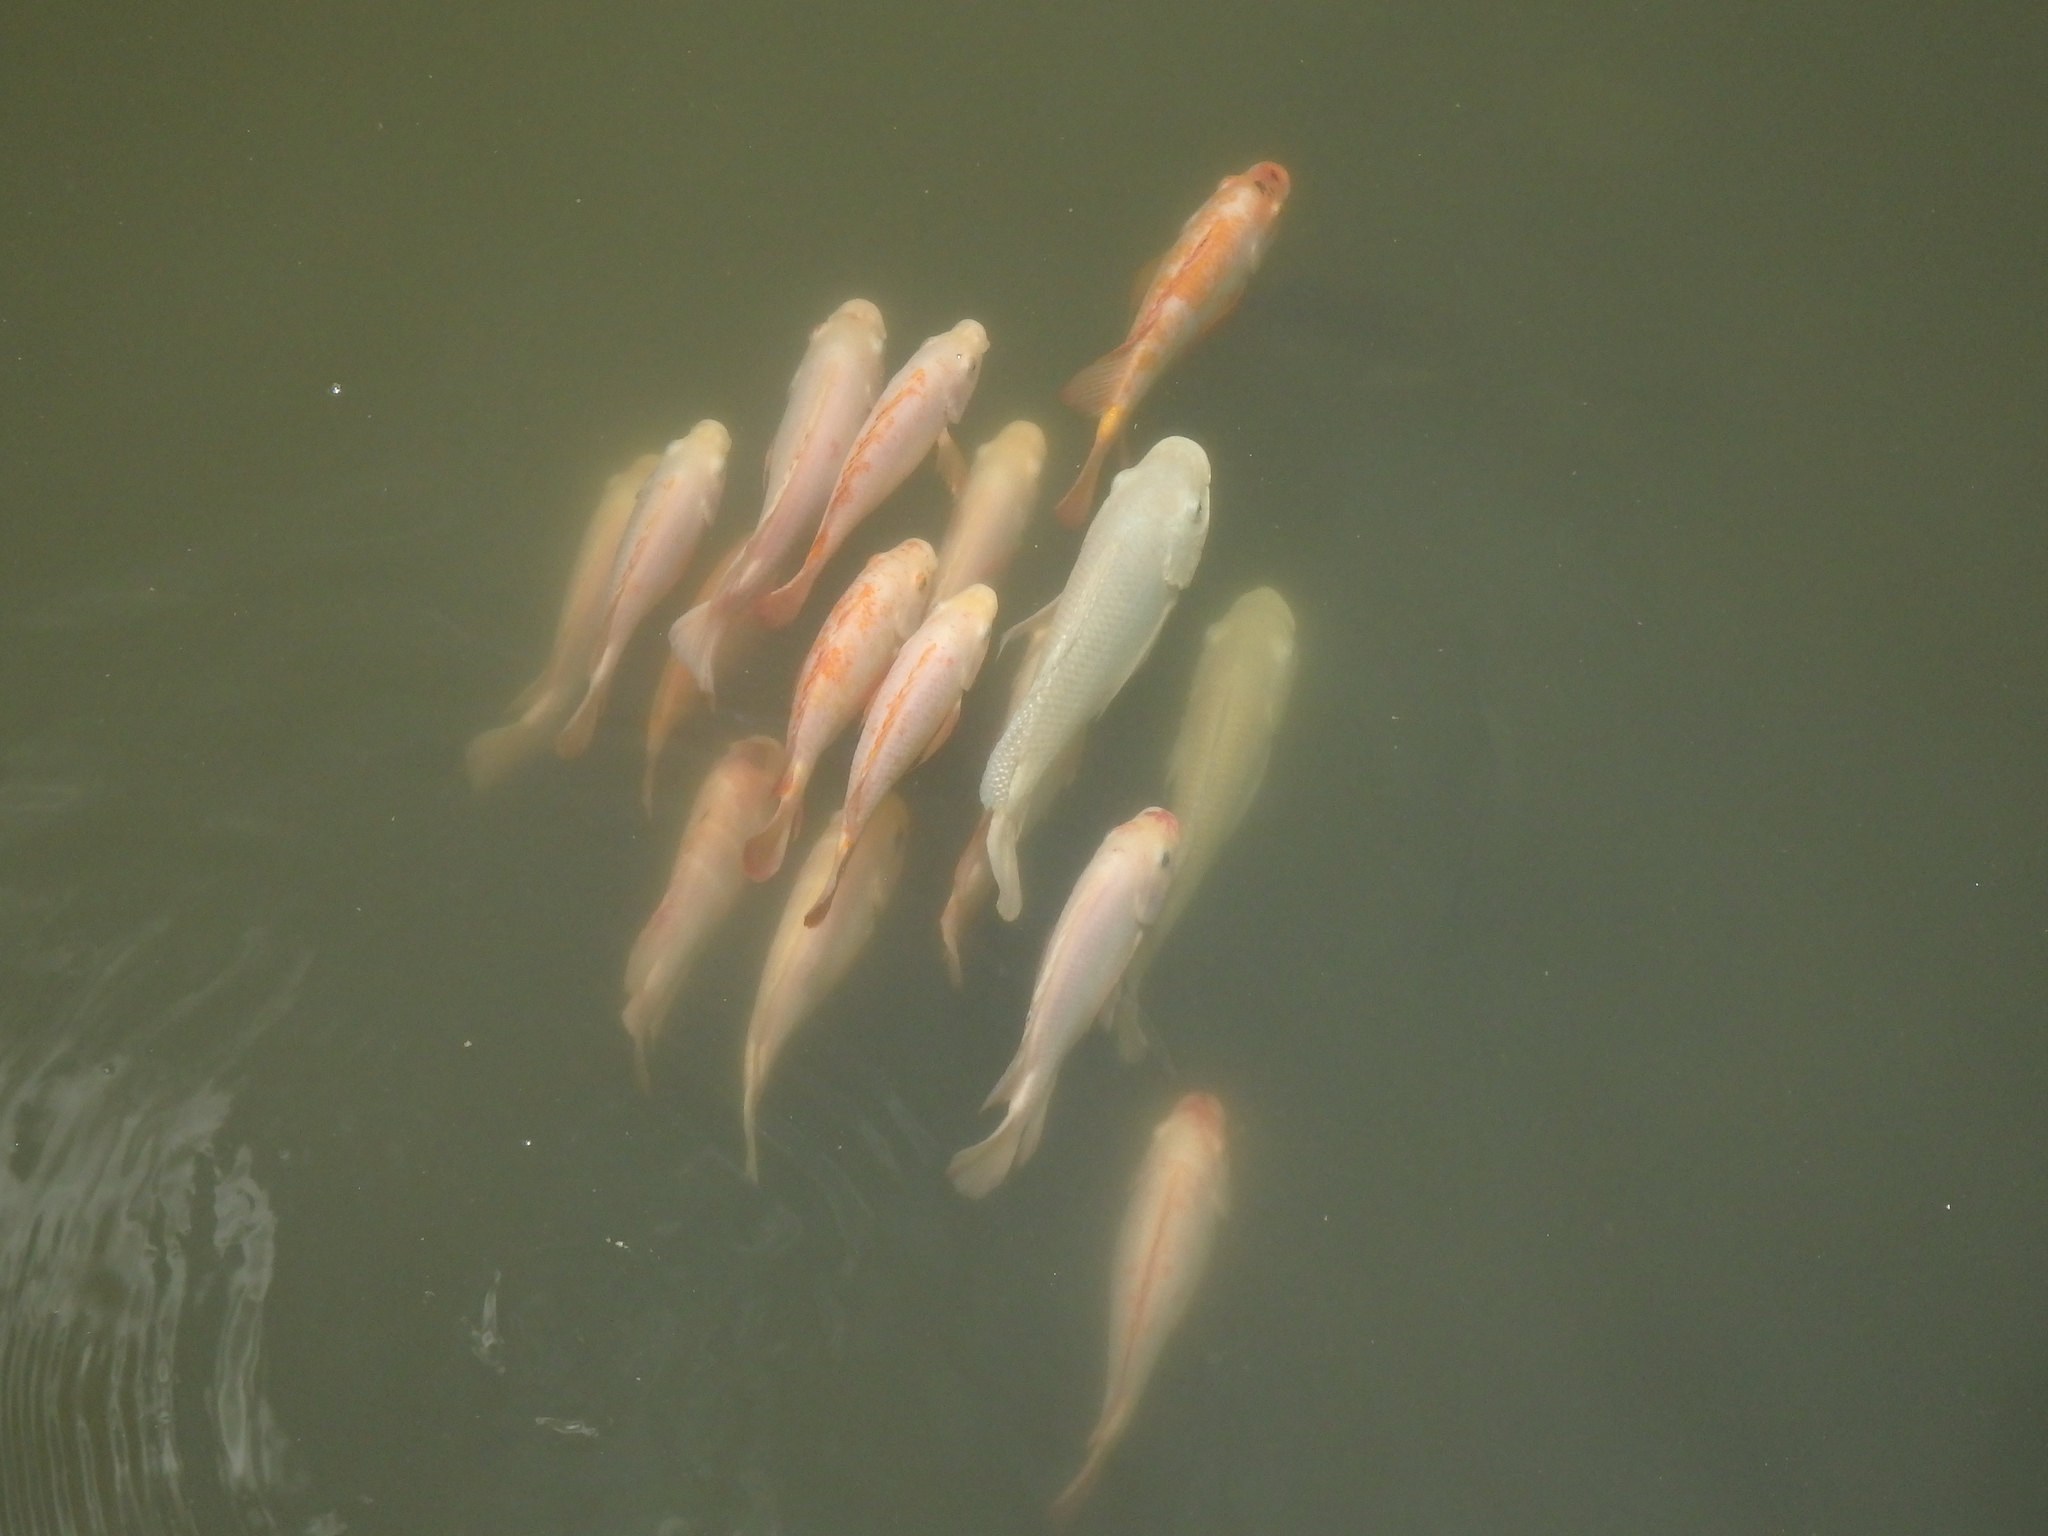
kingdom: Animalia
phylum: Chordata
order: Perciformes
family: Cichlidae
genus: Oreochromis
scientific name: Oreochromis mossambicus
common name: Mozambique tilapia
